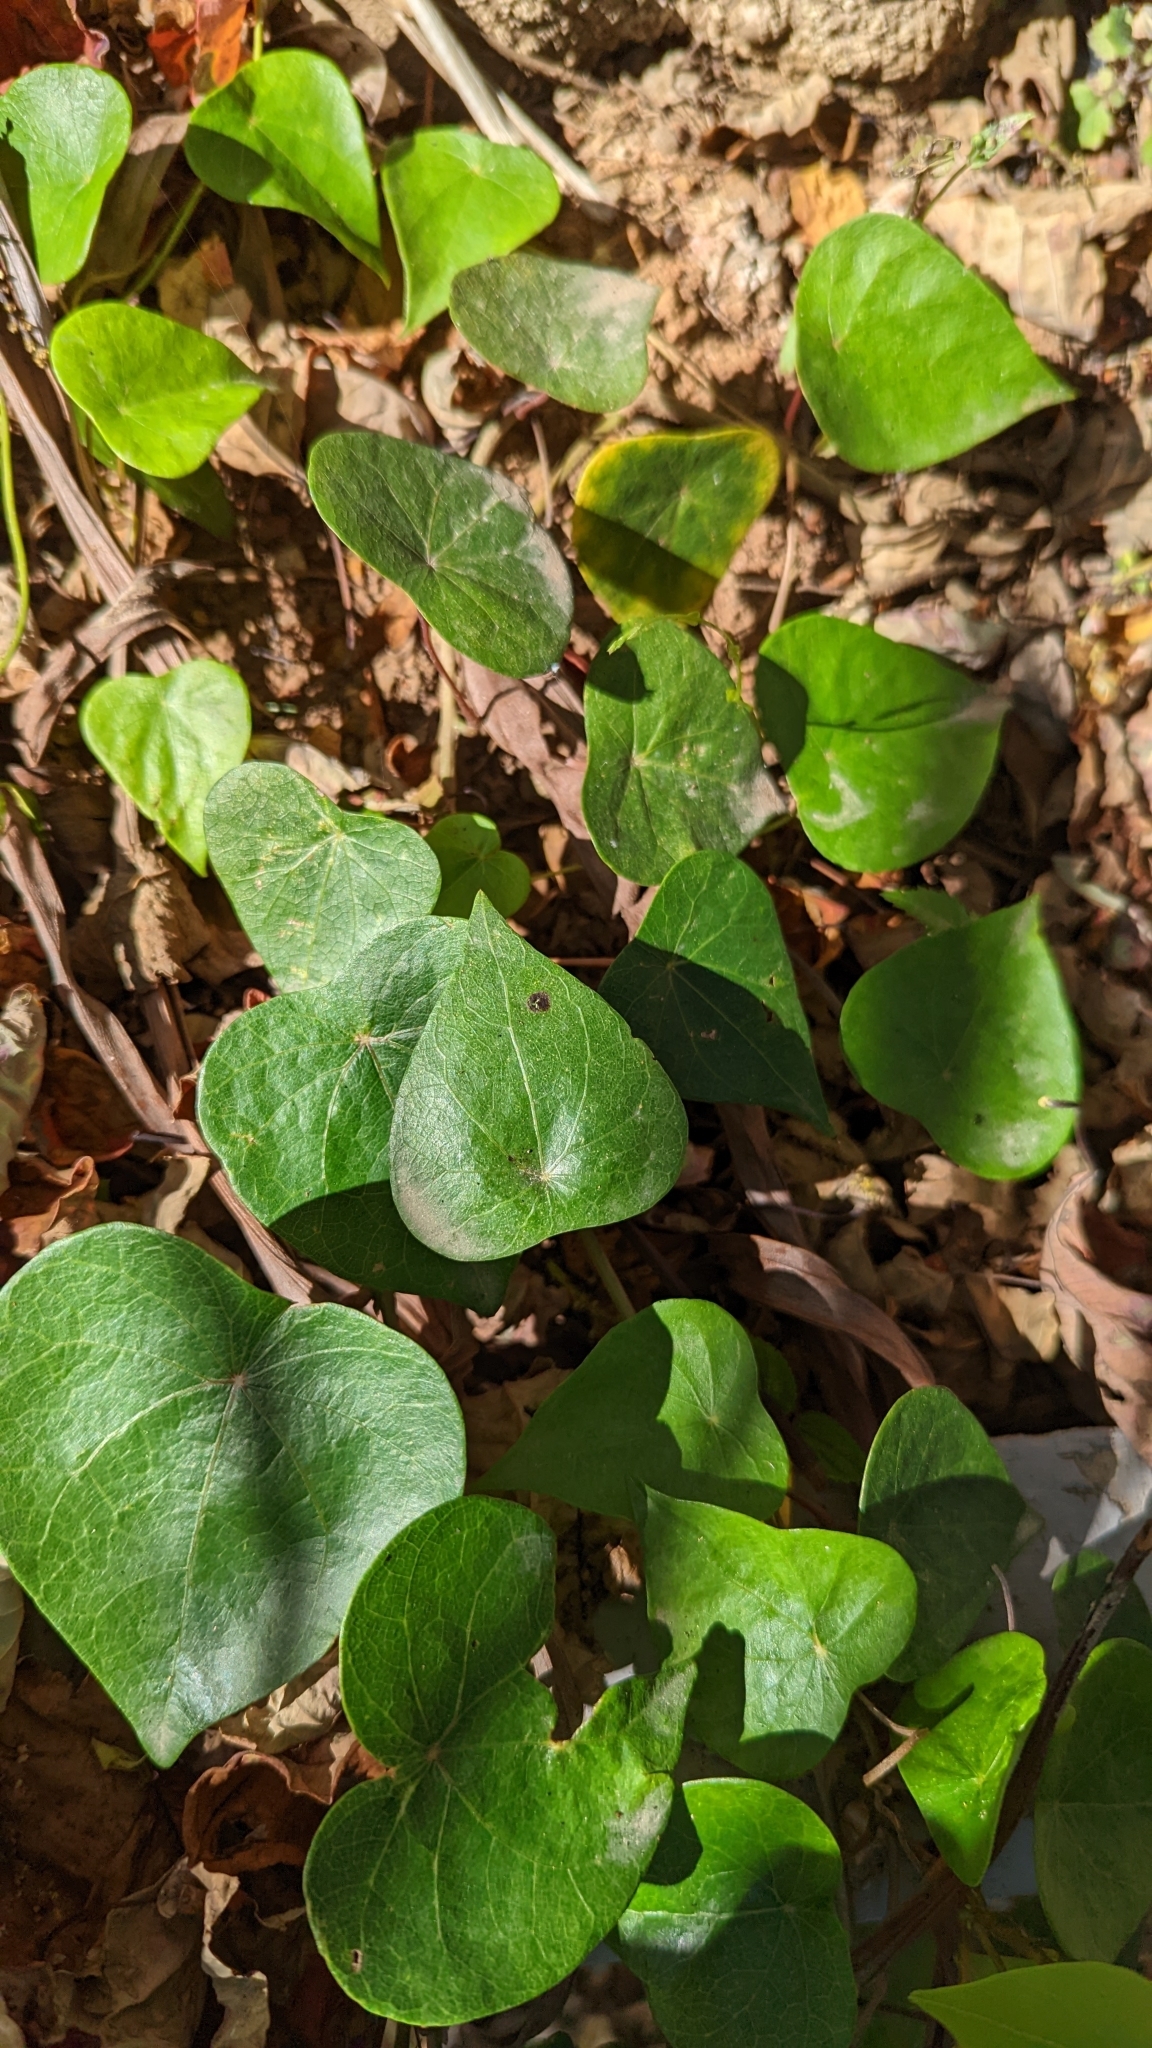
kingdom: Plantae
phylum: Tracheophyta
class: Magnoliopsida
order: Ranunculales
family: Menispermaceae
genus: Stephania
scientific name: Stephania japonica
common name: Snake vine
